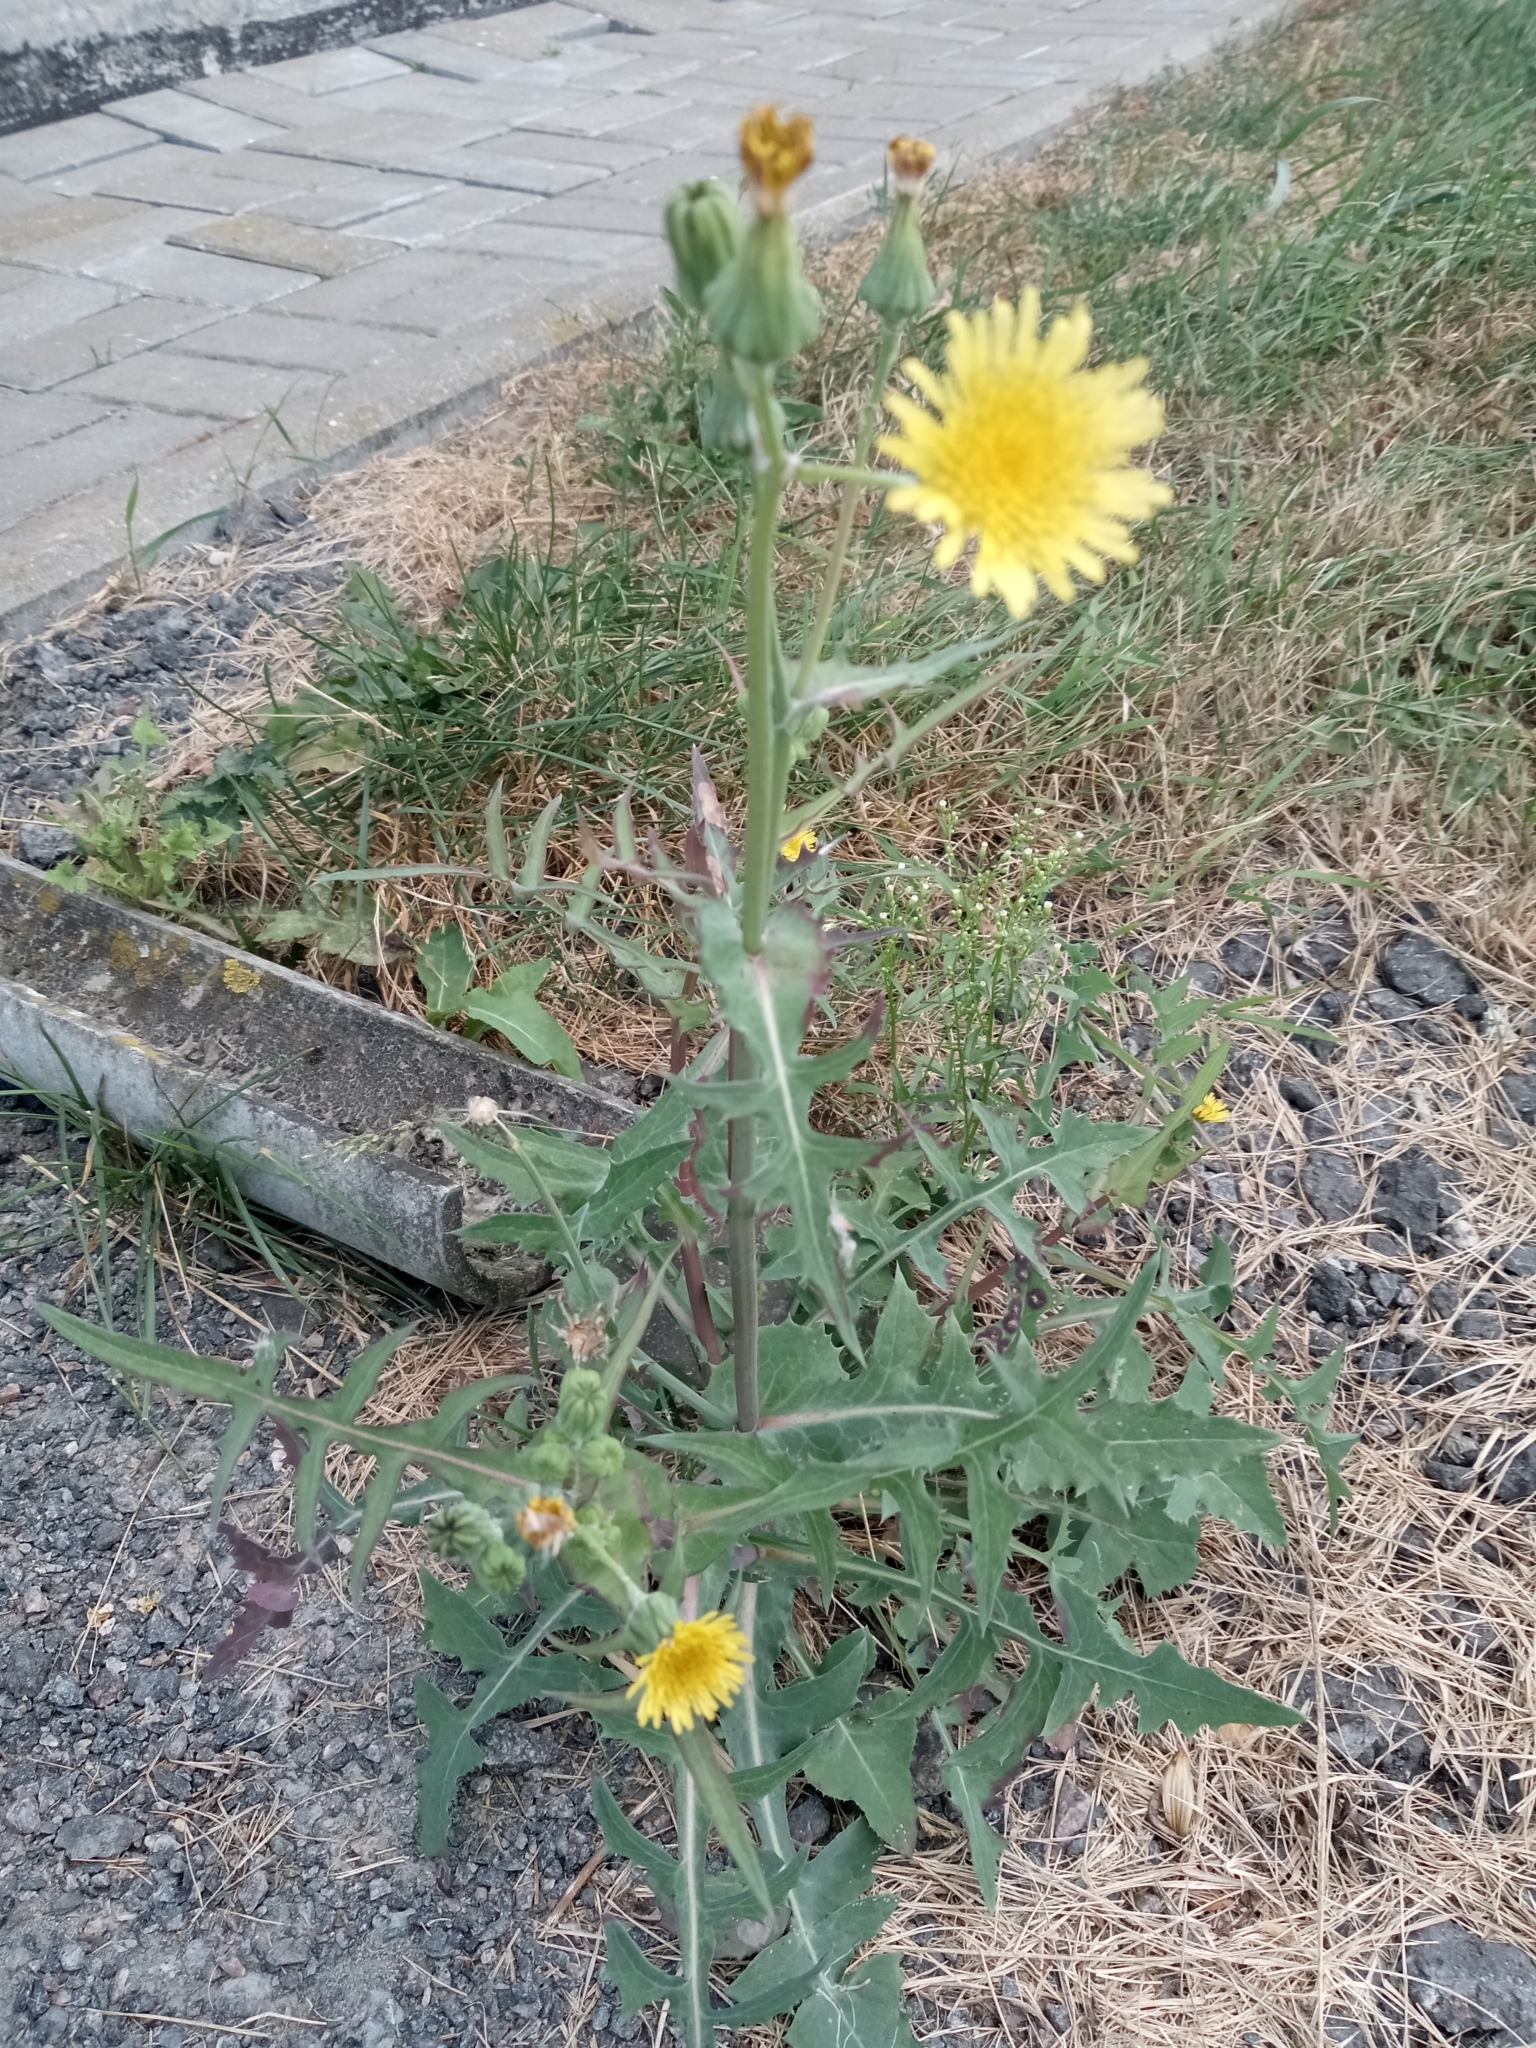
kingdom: Plantae
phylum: Tracheophyta
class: Magnoliopsida
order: Asterales
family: Asteraceae
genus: Sonchus
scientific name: Sonchus oleraceus
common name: Common sowthistle
